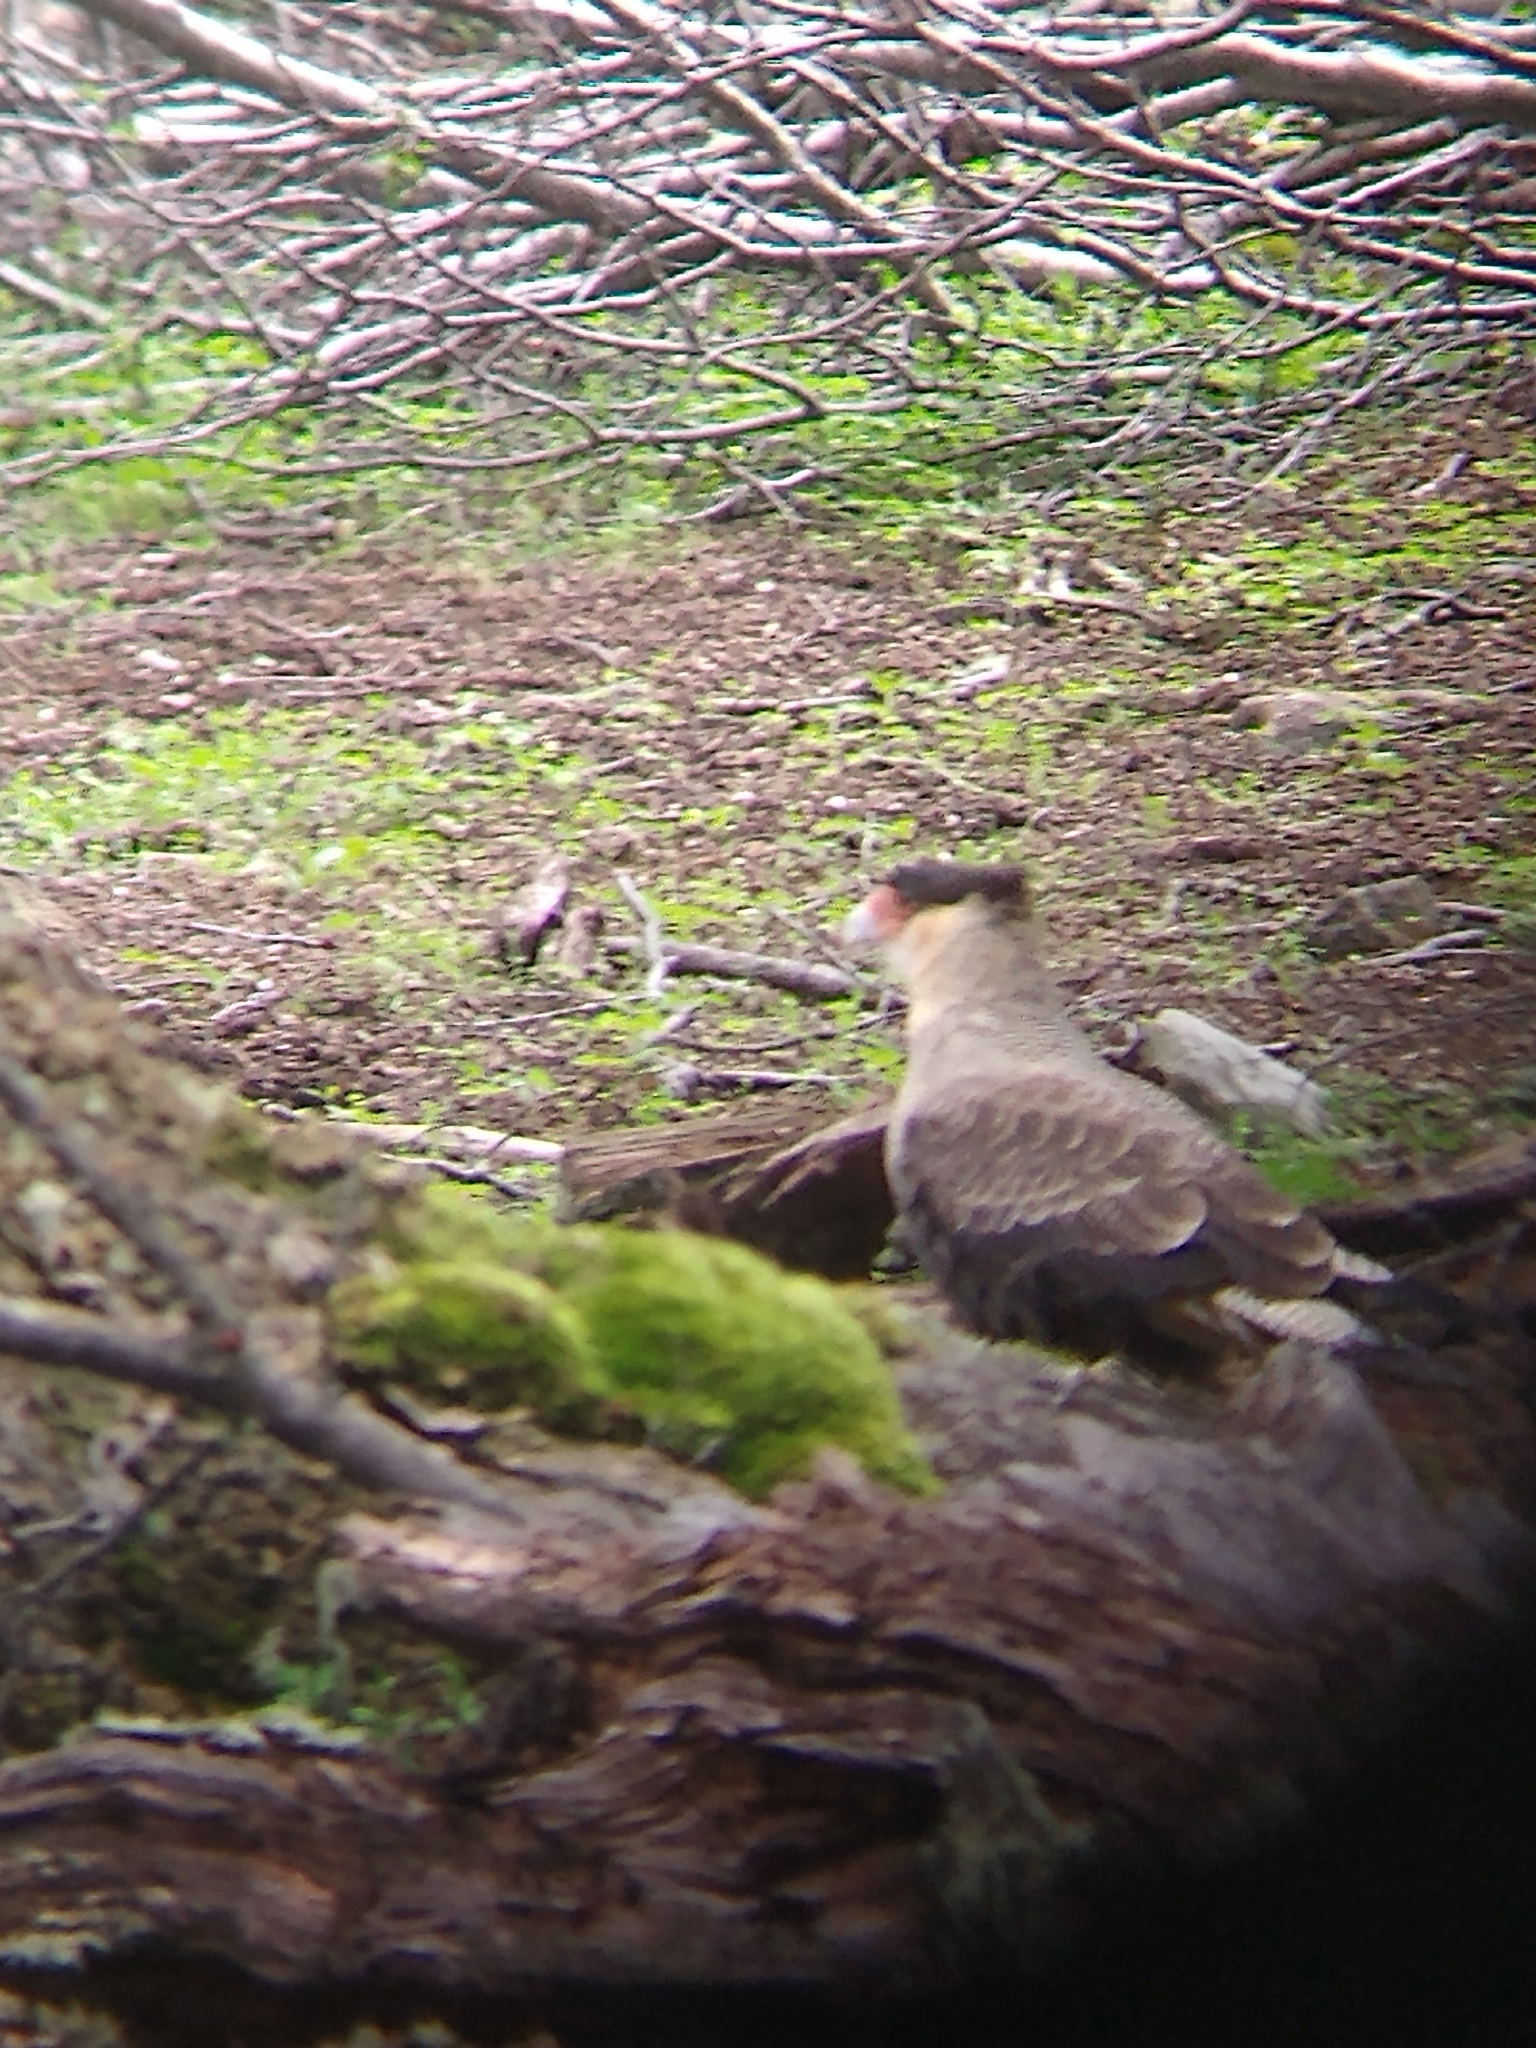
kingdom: Animalia
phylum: Chordata
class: Aves
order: Falconiformes
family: Falconidae
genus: Caracara
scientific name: Caracara plancus
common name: Southern caracara
